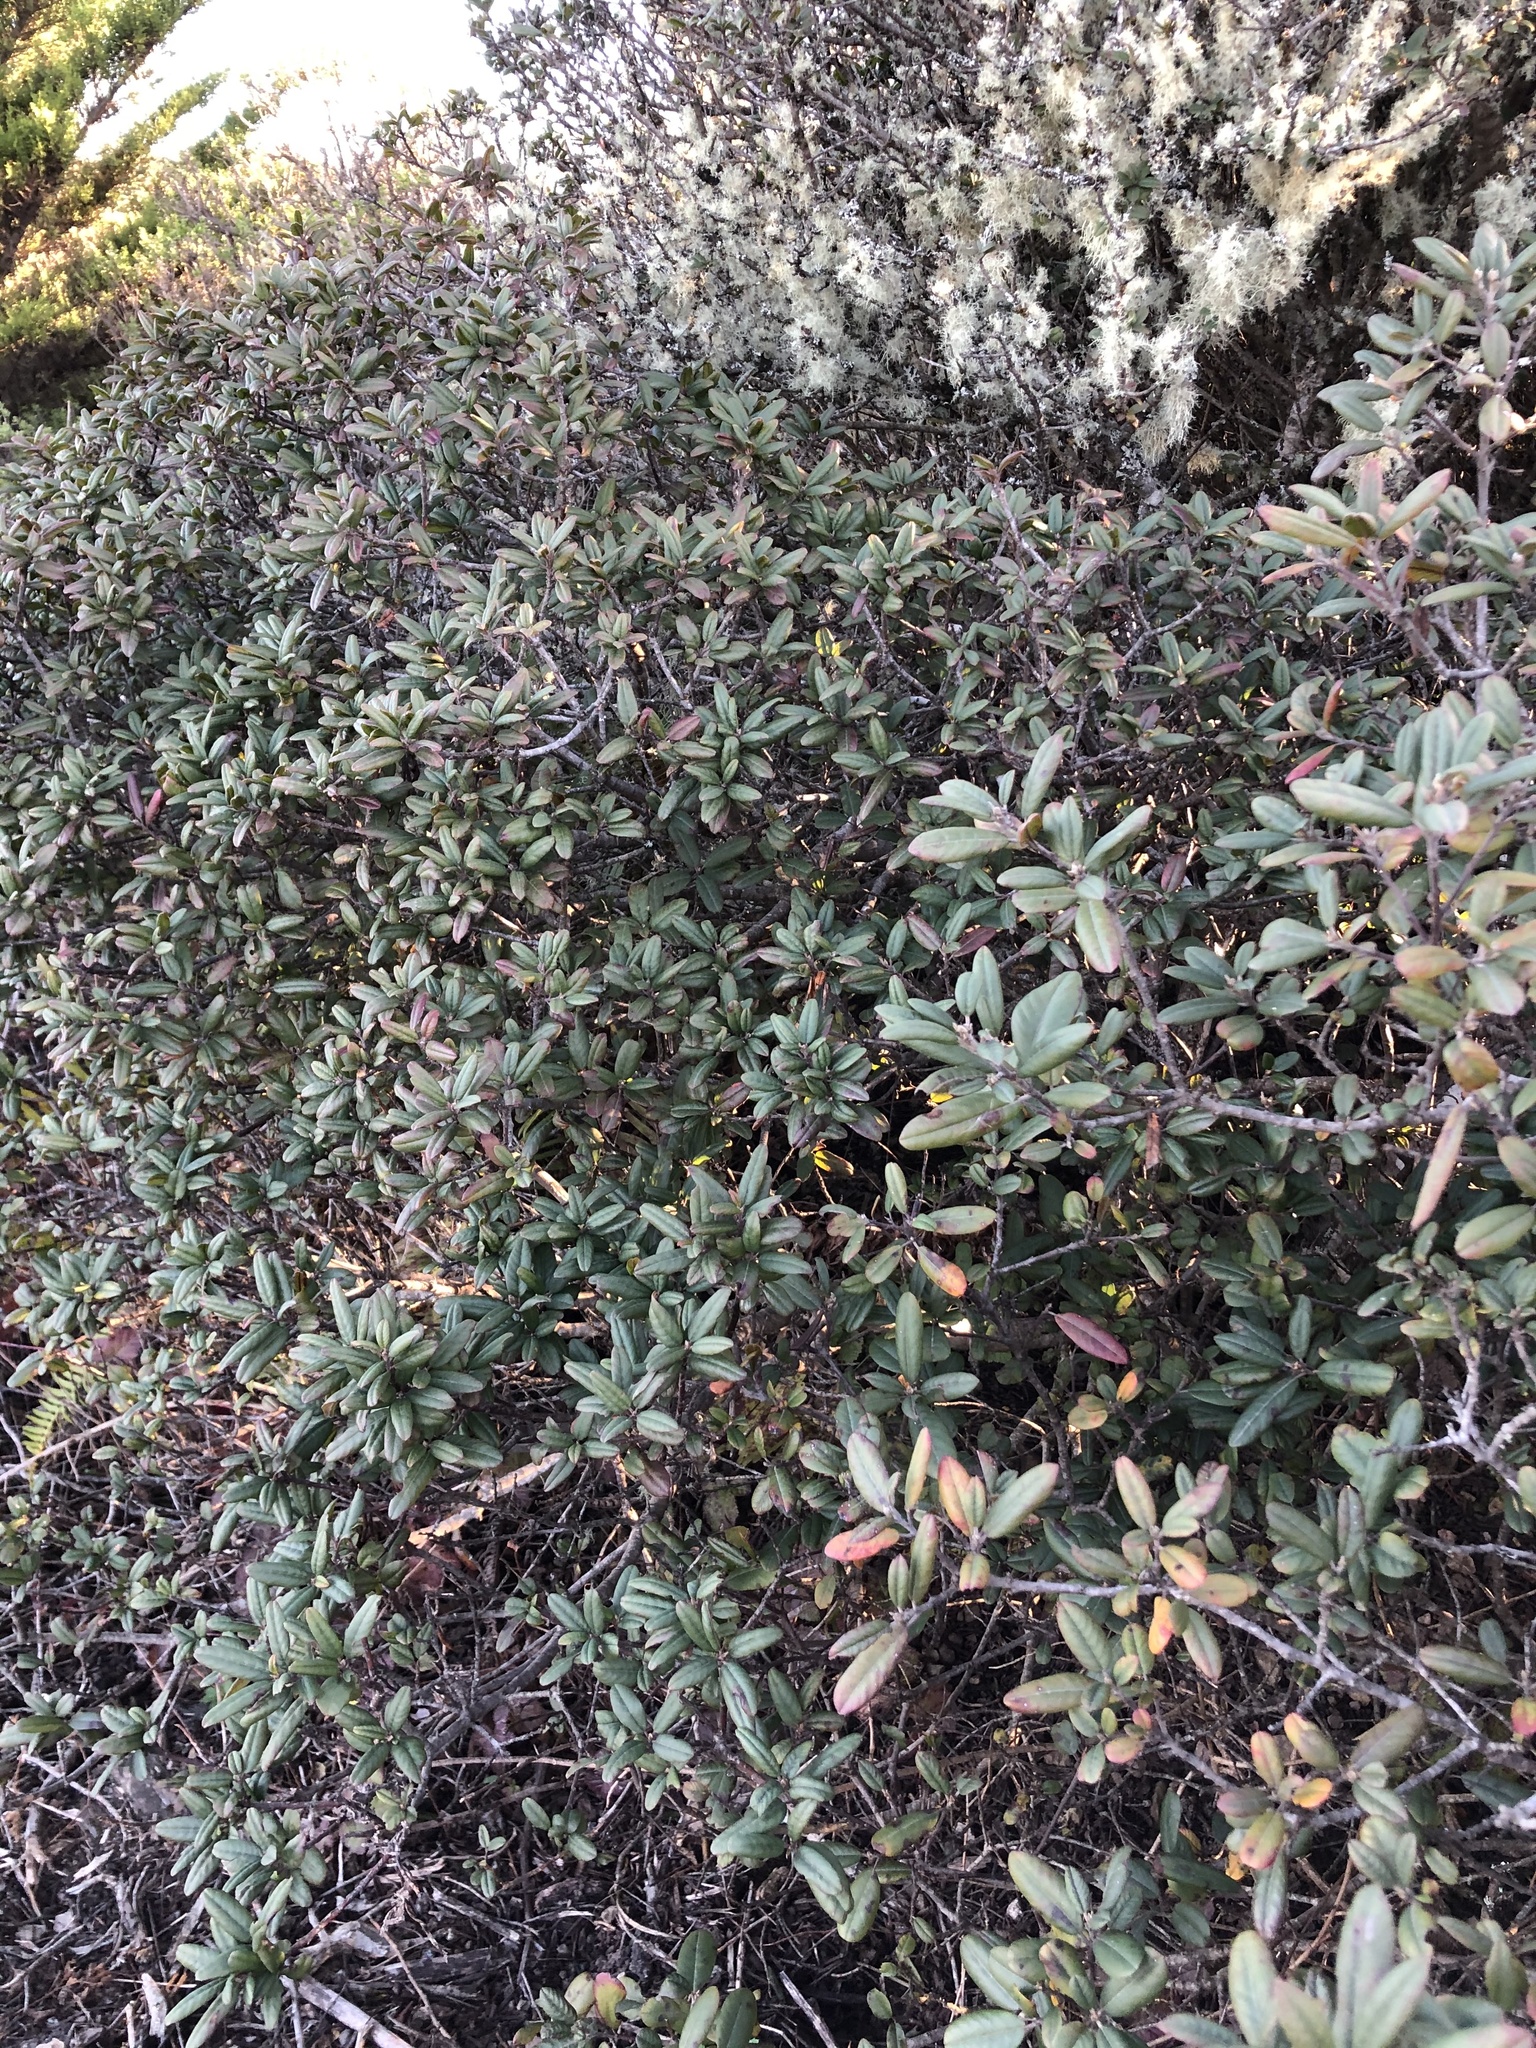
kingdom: Plantae
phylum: Tracheophyta
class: Magnoliopsida
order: Rosales
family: Rhamnaceae
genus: Frangula
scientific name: Frangula californica
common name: California buckthorn
